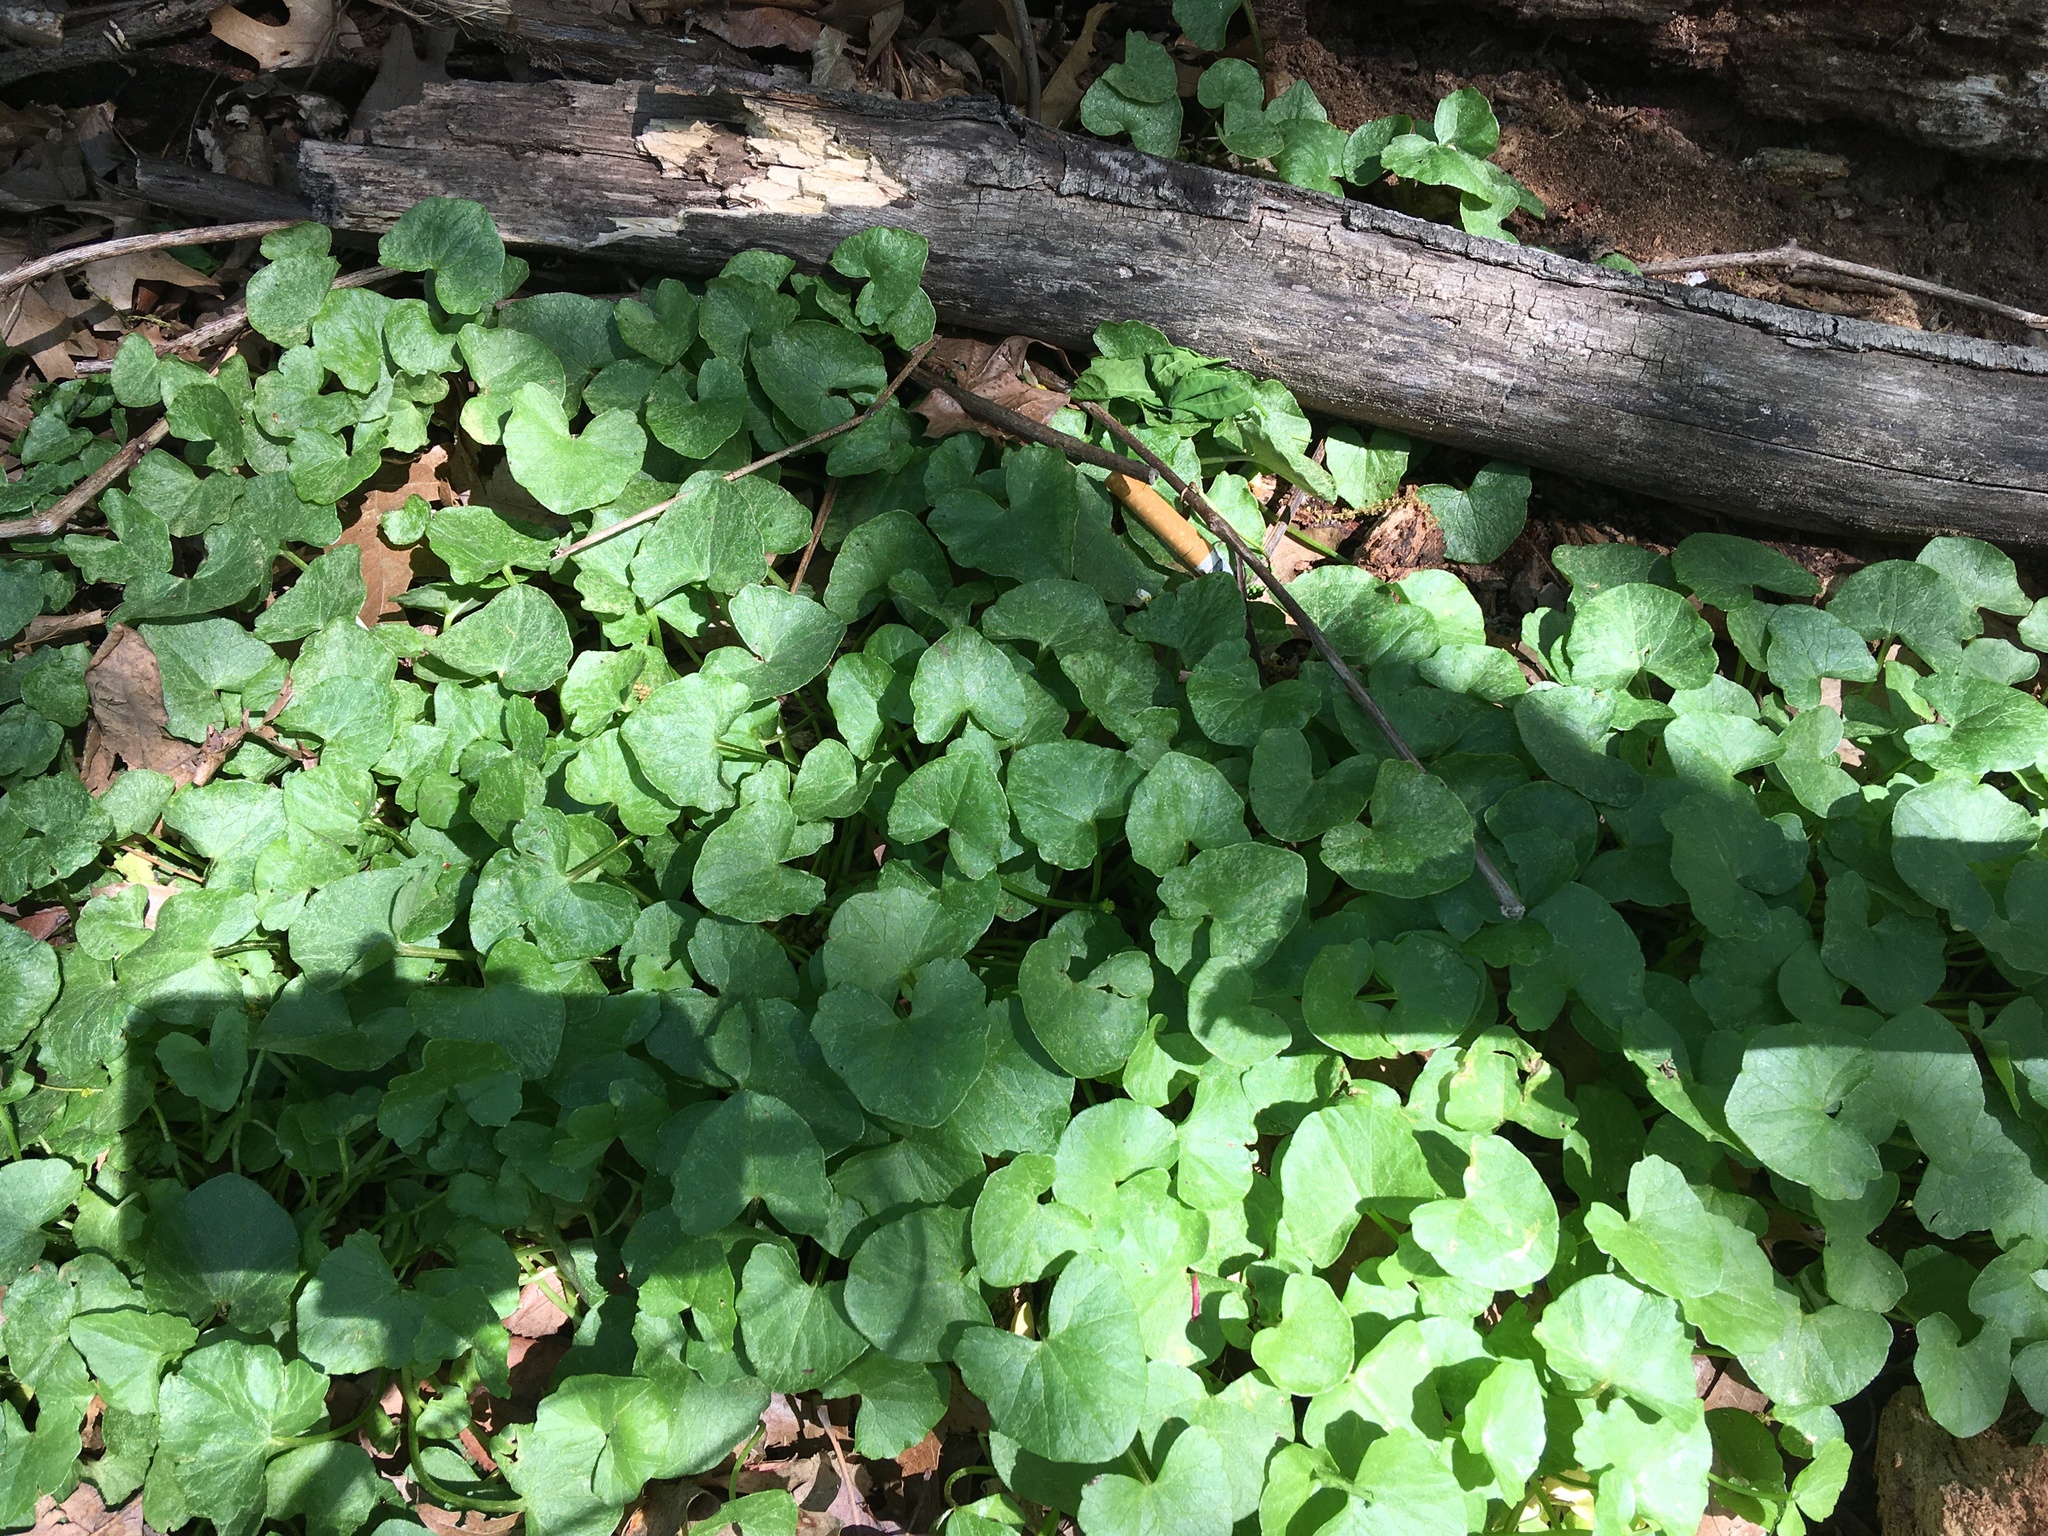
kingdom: Plantae
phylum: Tracheophyta
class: Magnoliopsida
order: Ranunculales
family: Ranunculaceae
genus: Ficaria
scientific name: Ficaria verna
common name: Lesser celandine
